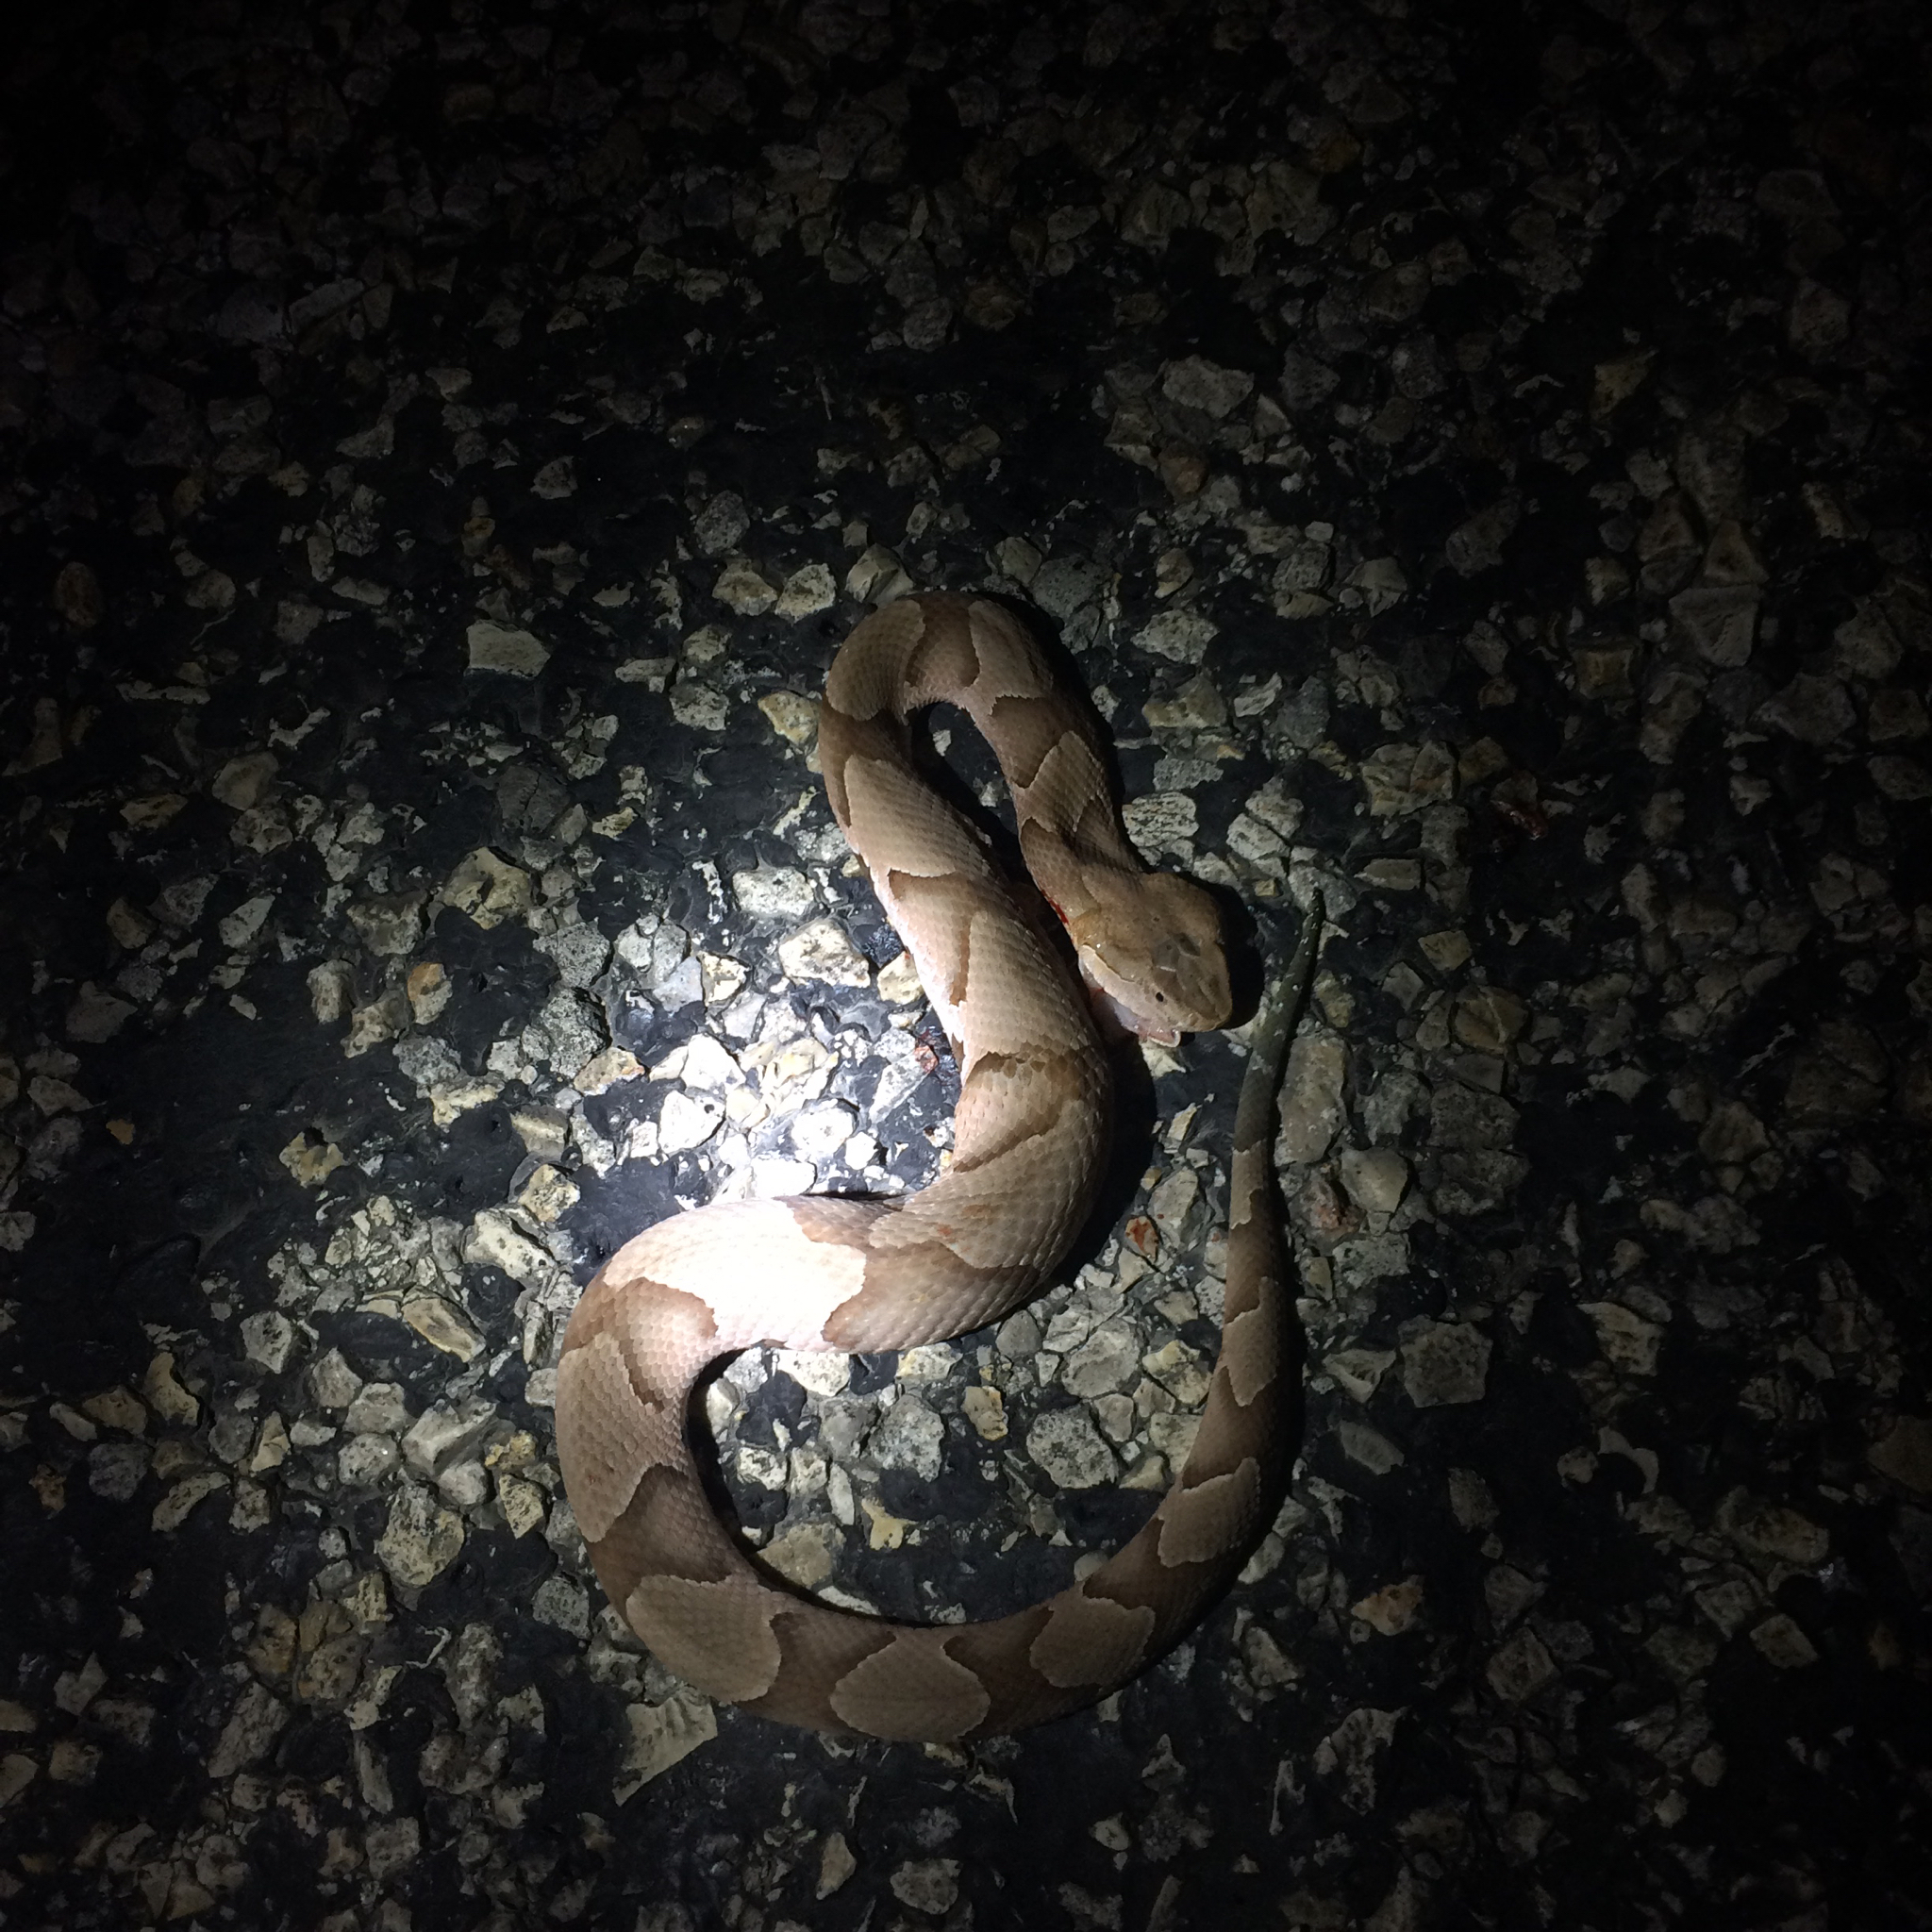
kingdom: Animalia
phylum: Chordata
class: Squamata
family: Viperidae
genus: Agkistrodon
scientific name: Agkistrodon contortrix
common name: Northern copperhead
